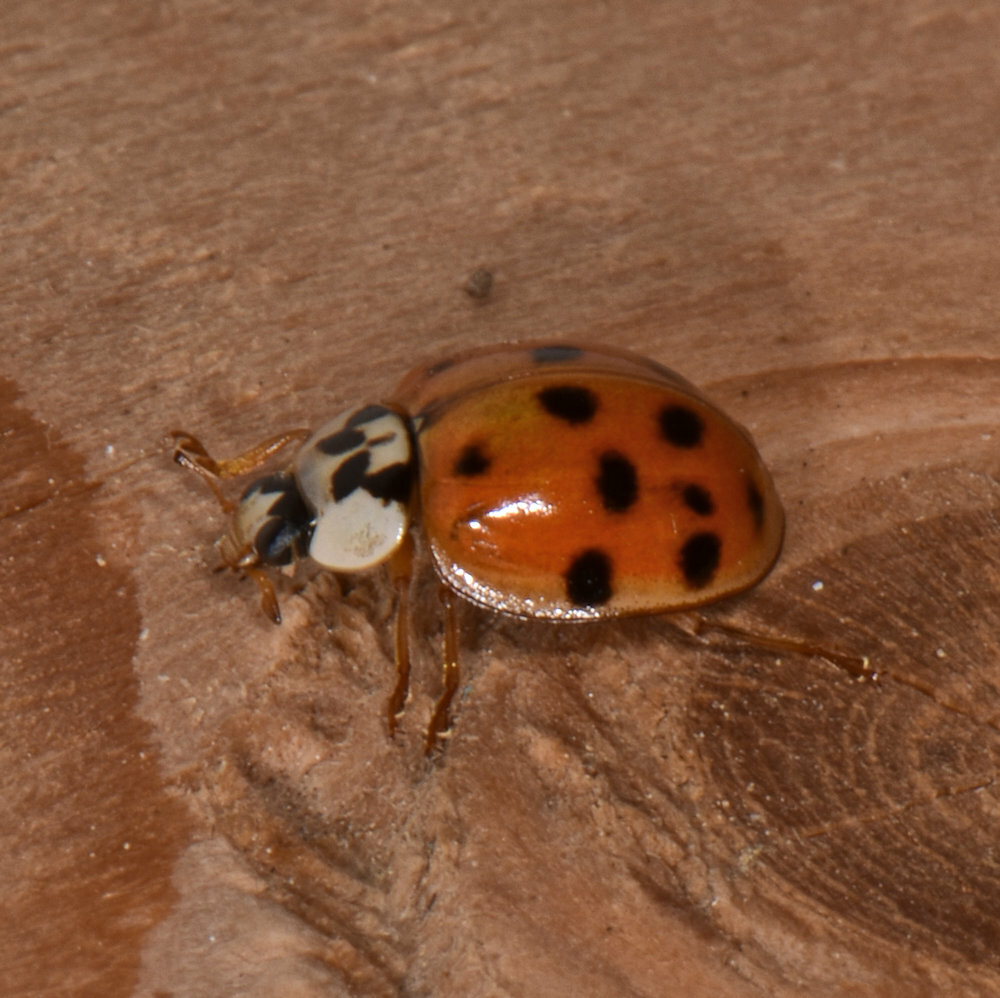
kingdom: Animalia
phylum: Arthropoda
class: Insecta
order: Coleoptera
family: Coccinellidae
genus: Harmonia
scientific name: Harmonia axyridis
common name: Harlequin ladybird
